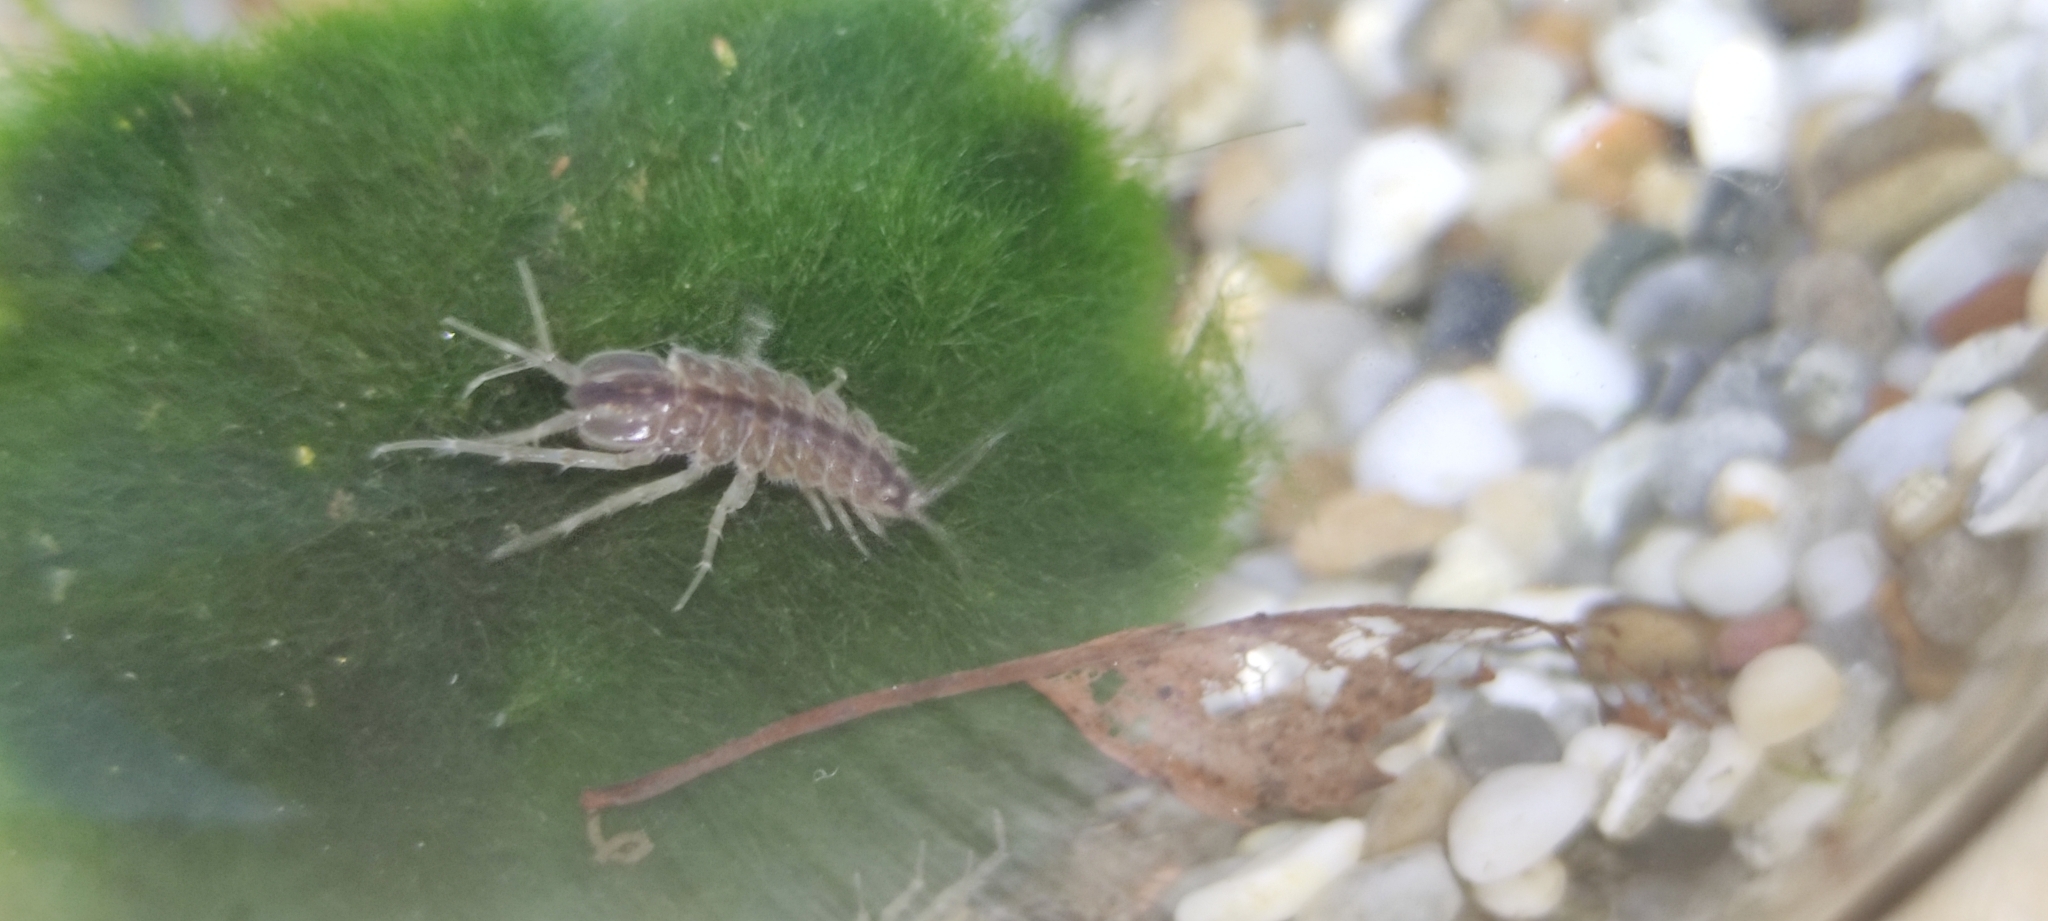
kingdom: Animalia
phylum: Arthropoda
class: Malacostraca
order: Isopoda
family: Asellidae
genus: Asellus
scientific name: Asellus aquaticus
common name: Water hog lice/slaters
